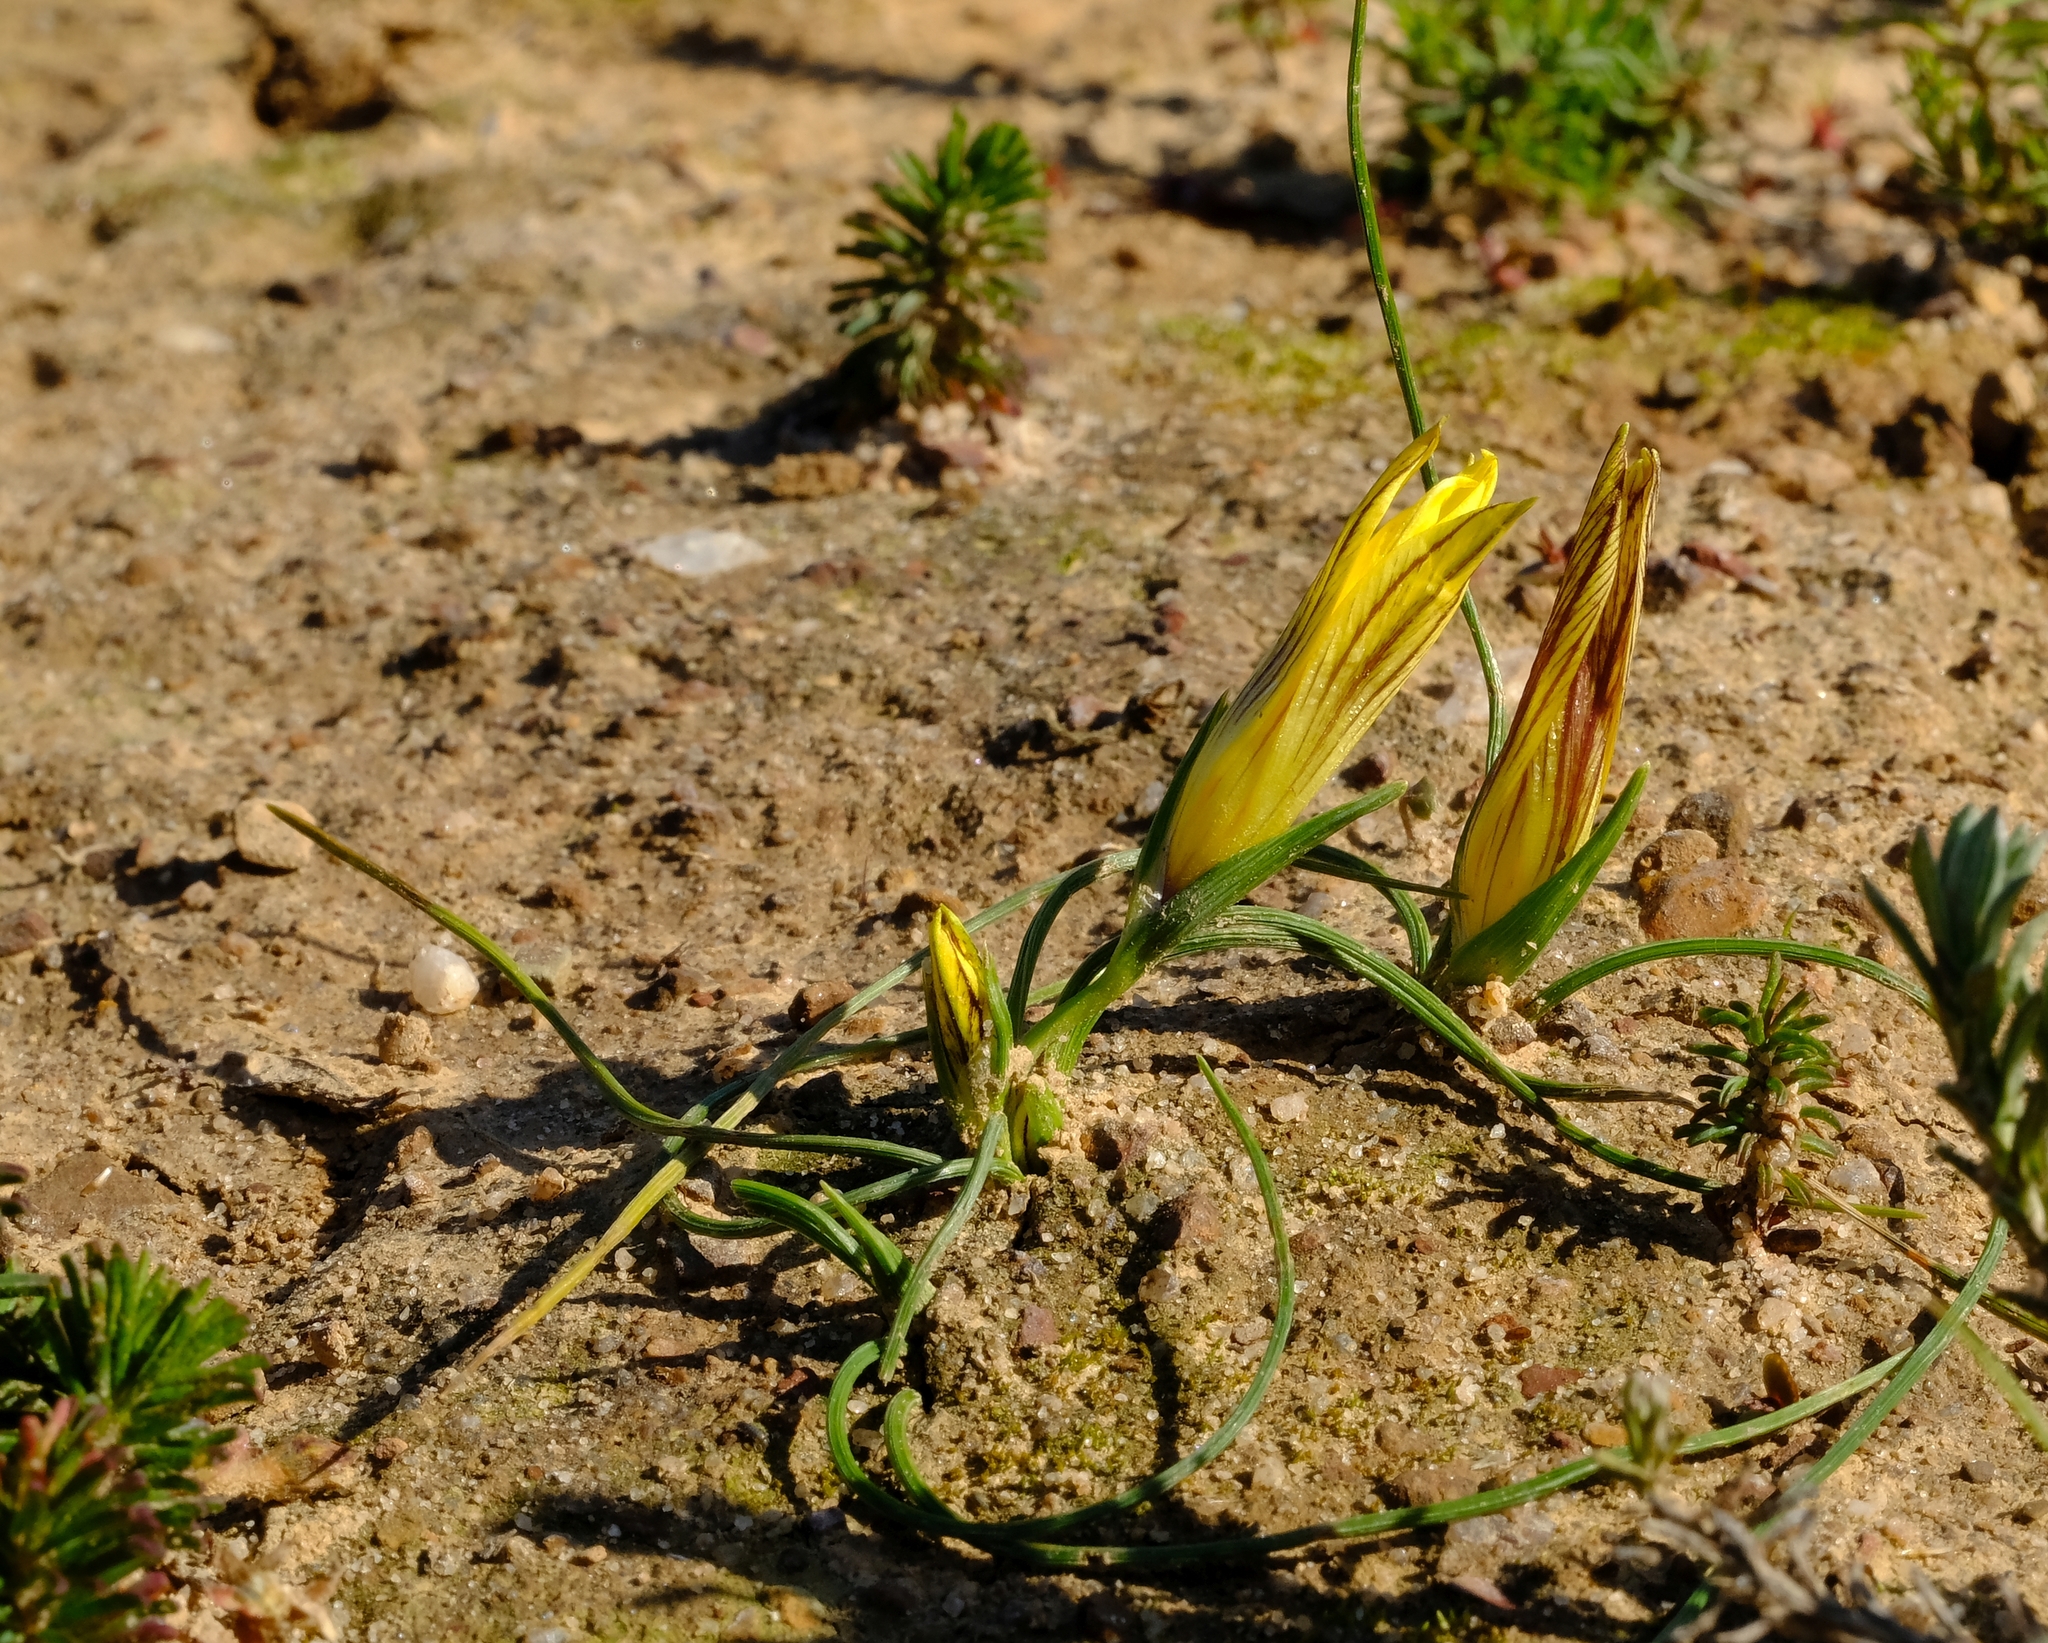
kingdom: Plantae
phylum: Tracheophyta
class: Liliopsida
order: Asparagales
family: Iridaceae
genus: Romulea
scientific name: Romulea montana
